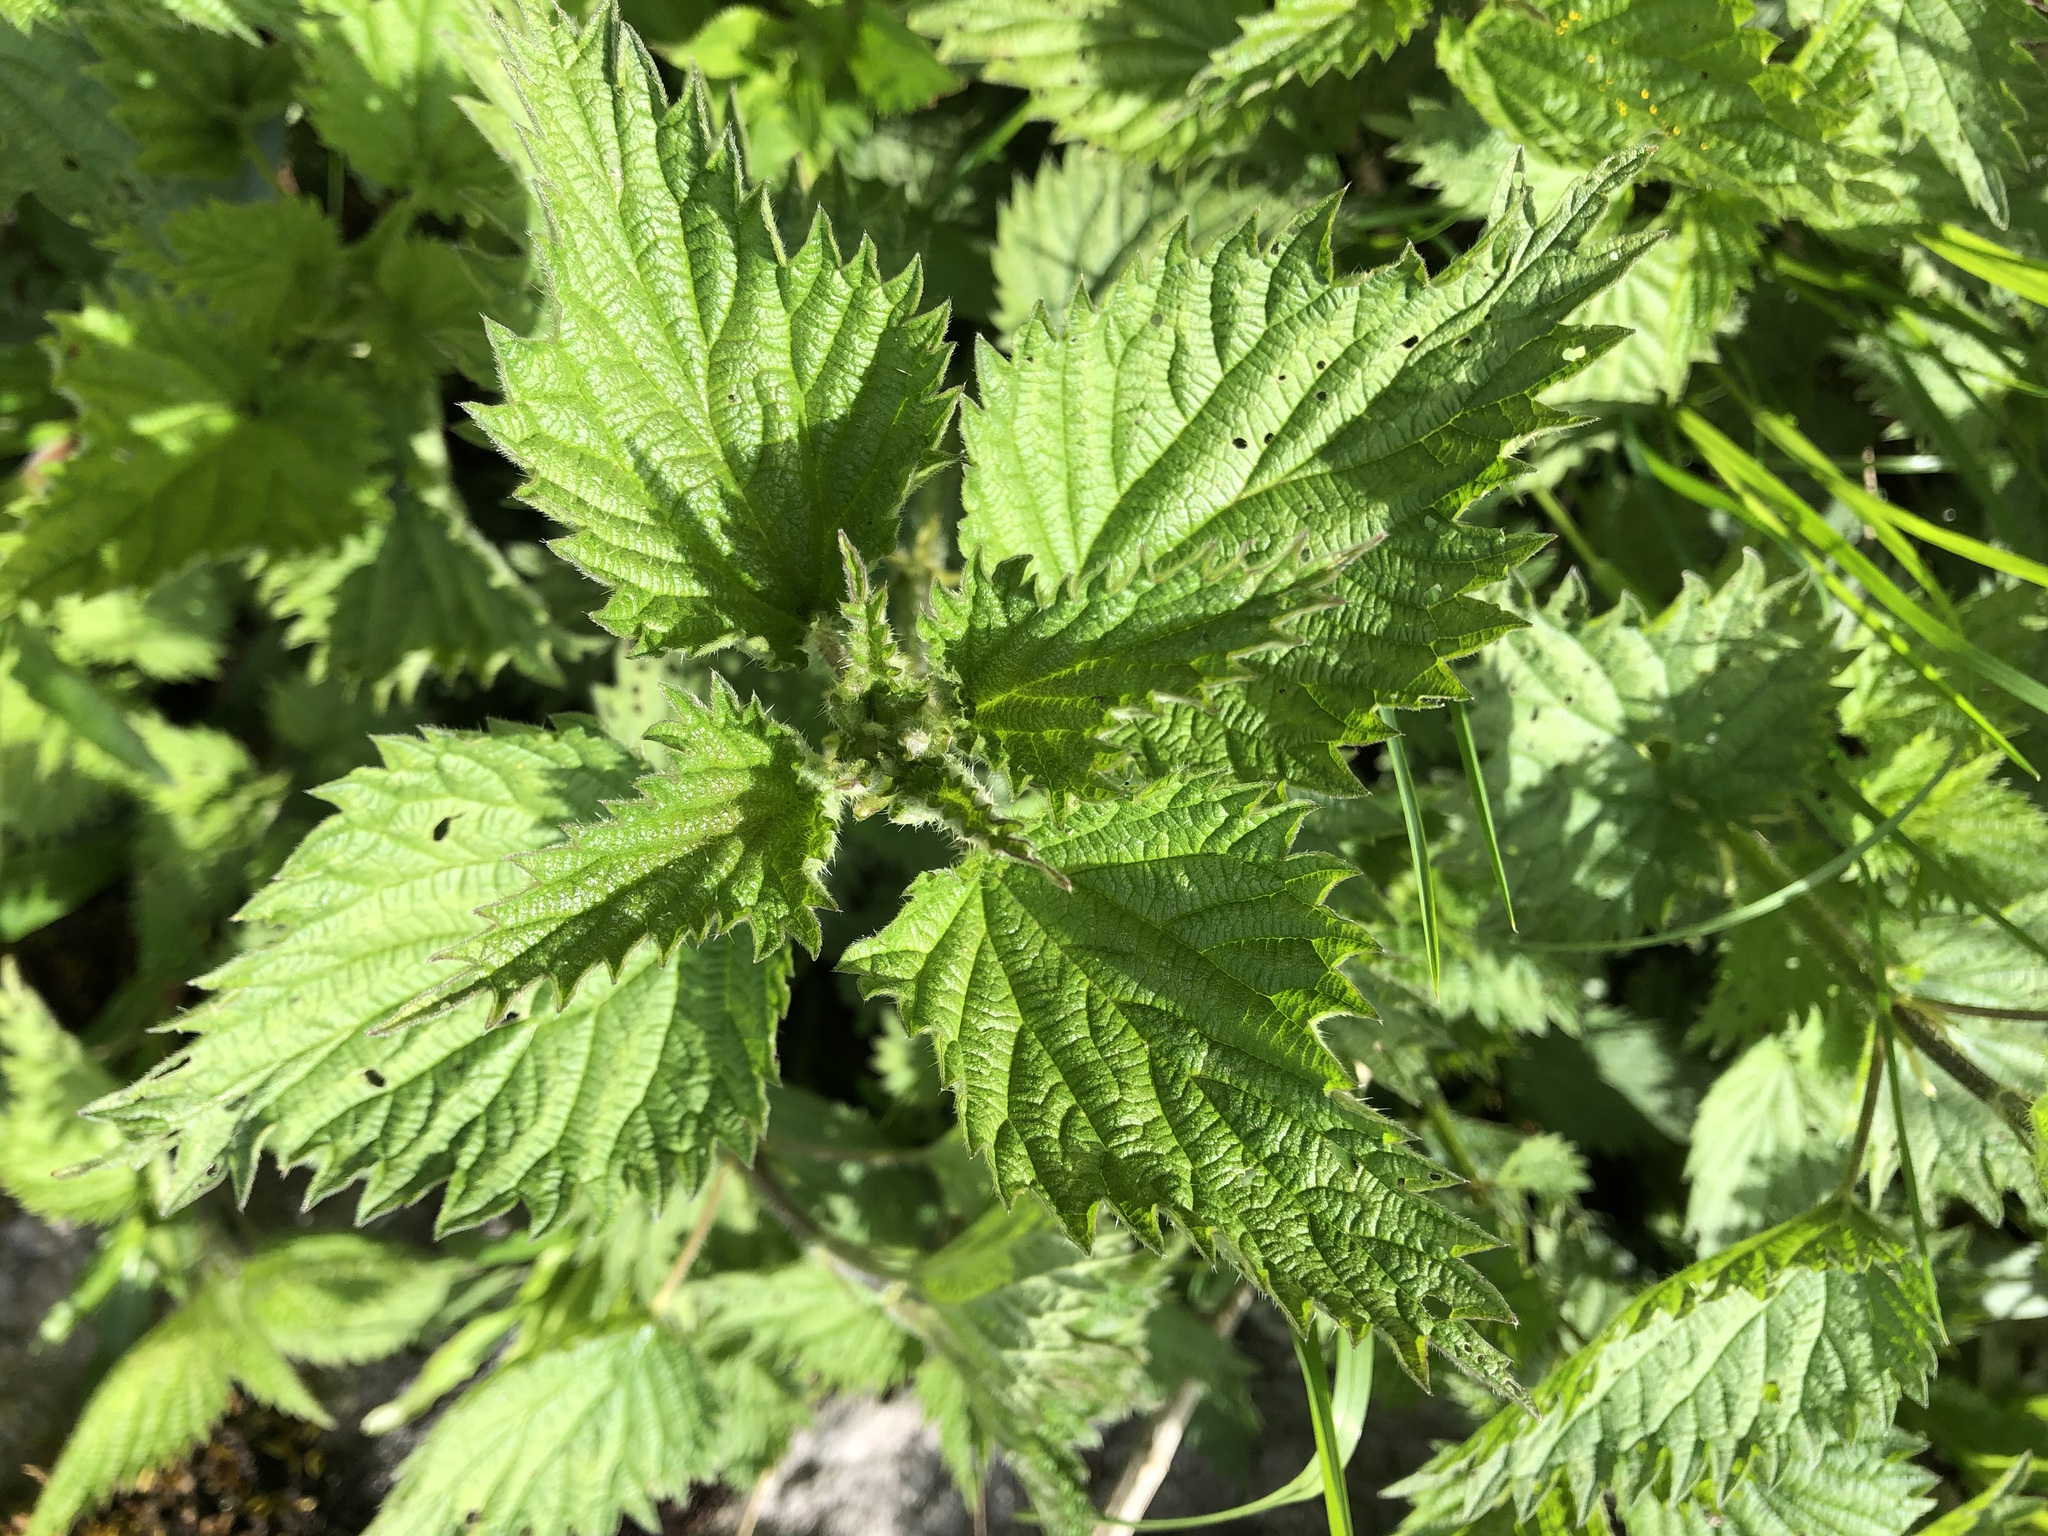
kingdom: Plantae
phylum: Tracheophyta
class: Magnoliopsida
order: Rosales
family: Urticaceae
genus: Urtica
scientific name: Urtica dioica
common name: Common nettle
